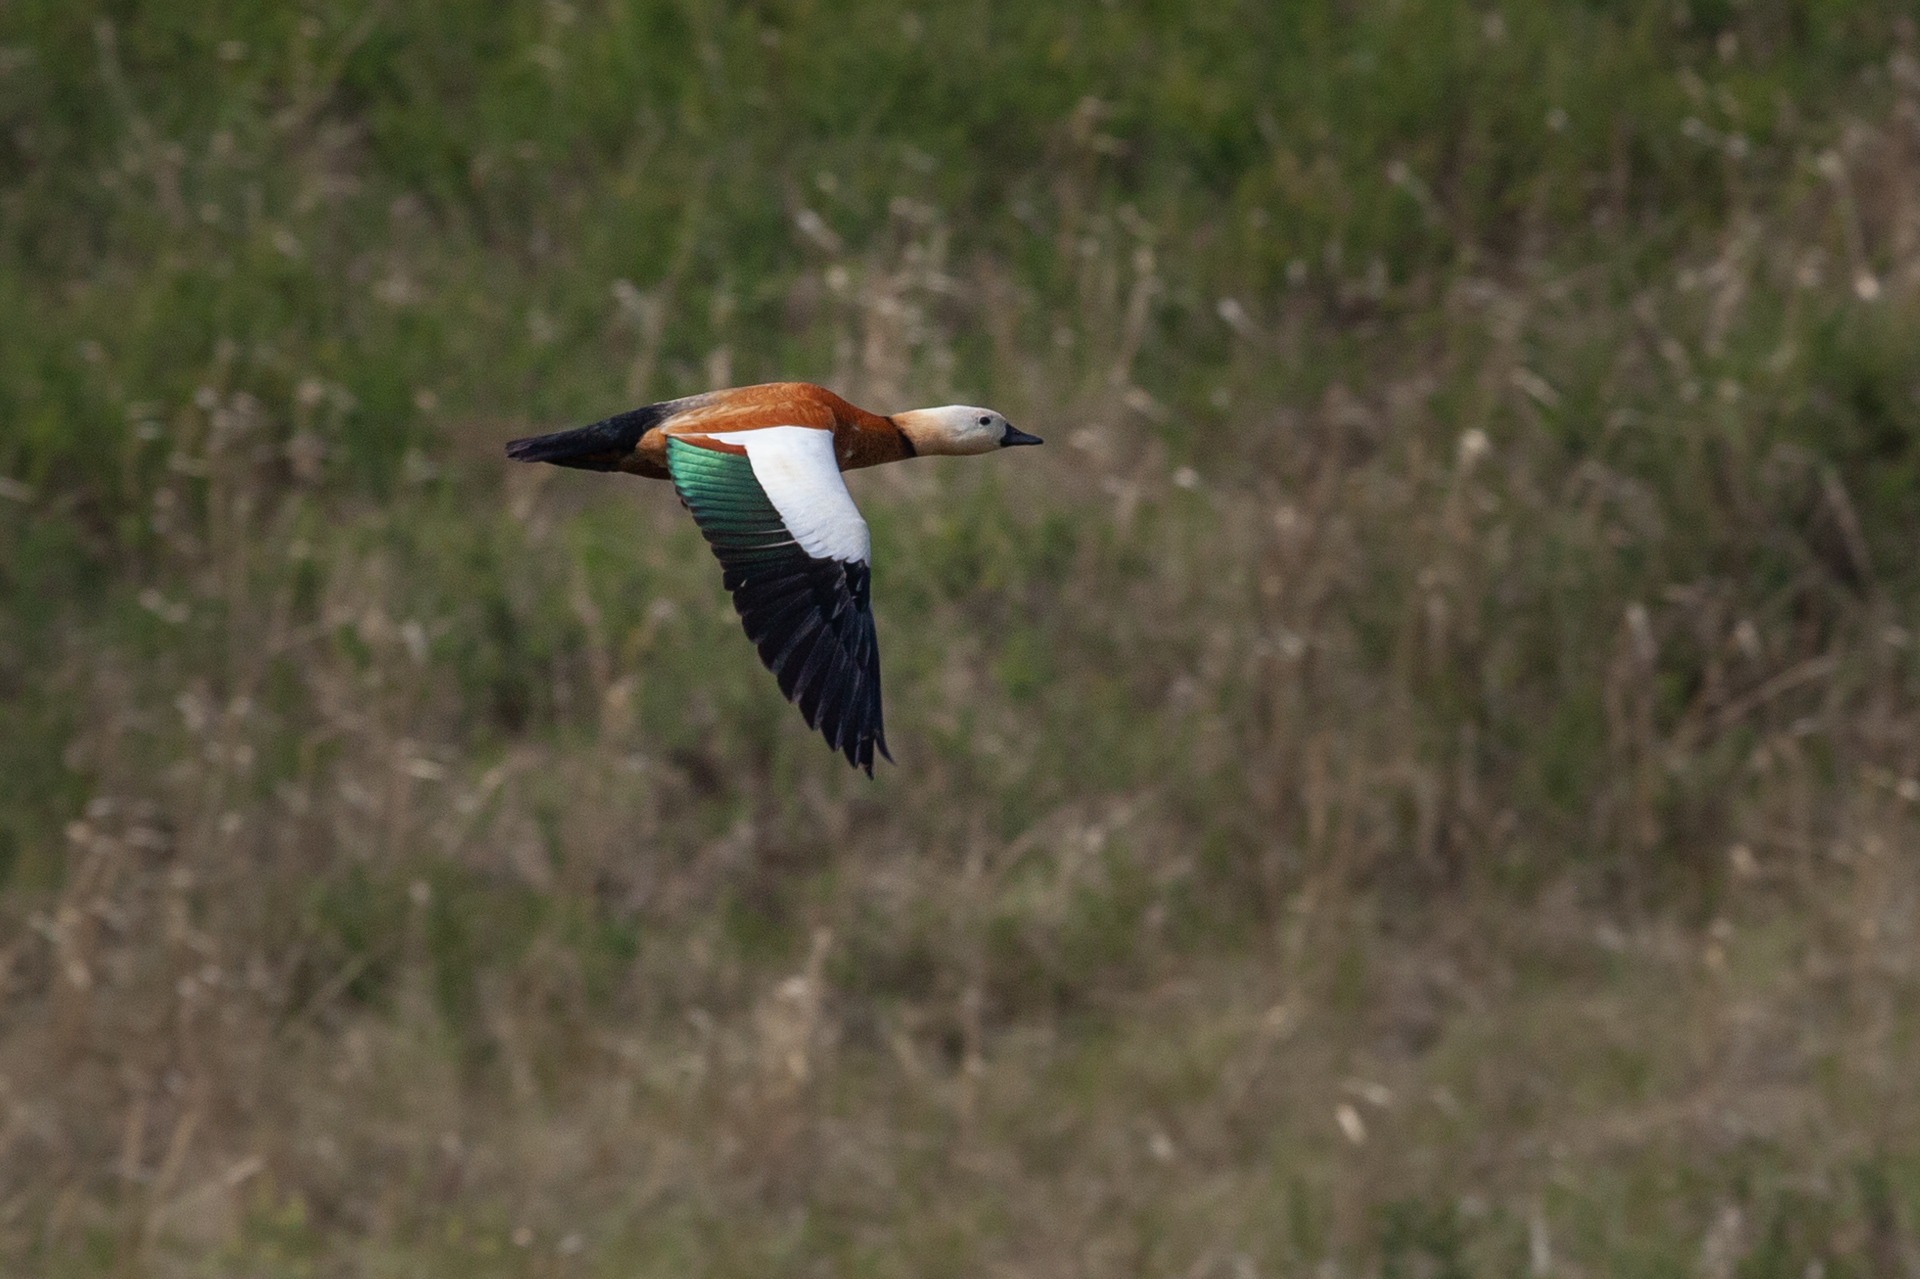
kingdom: Animalia
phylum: Chordata
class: Aves
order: Anseriformes
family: Anatidae
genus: Tadorna
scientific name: Tadorna ferruginea
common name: Ruddy shelduck
